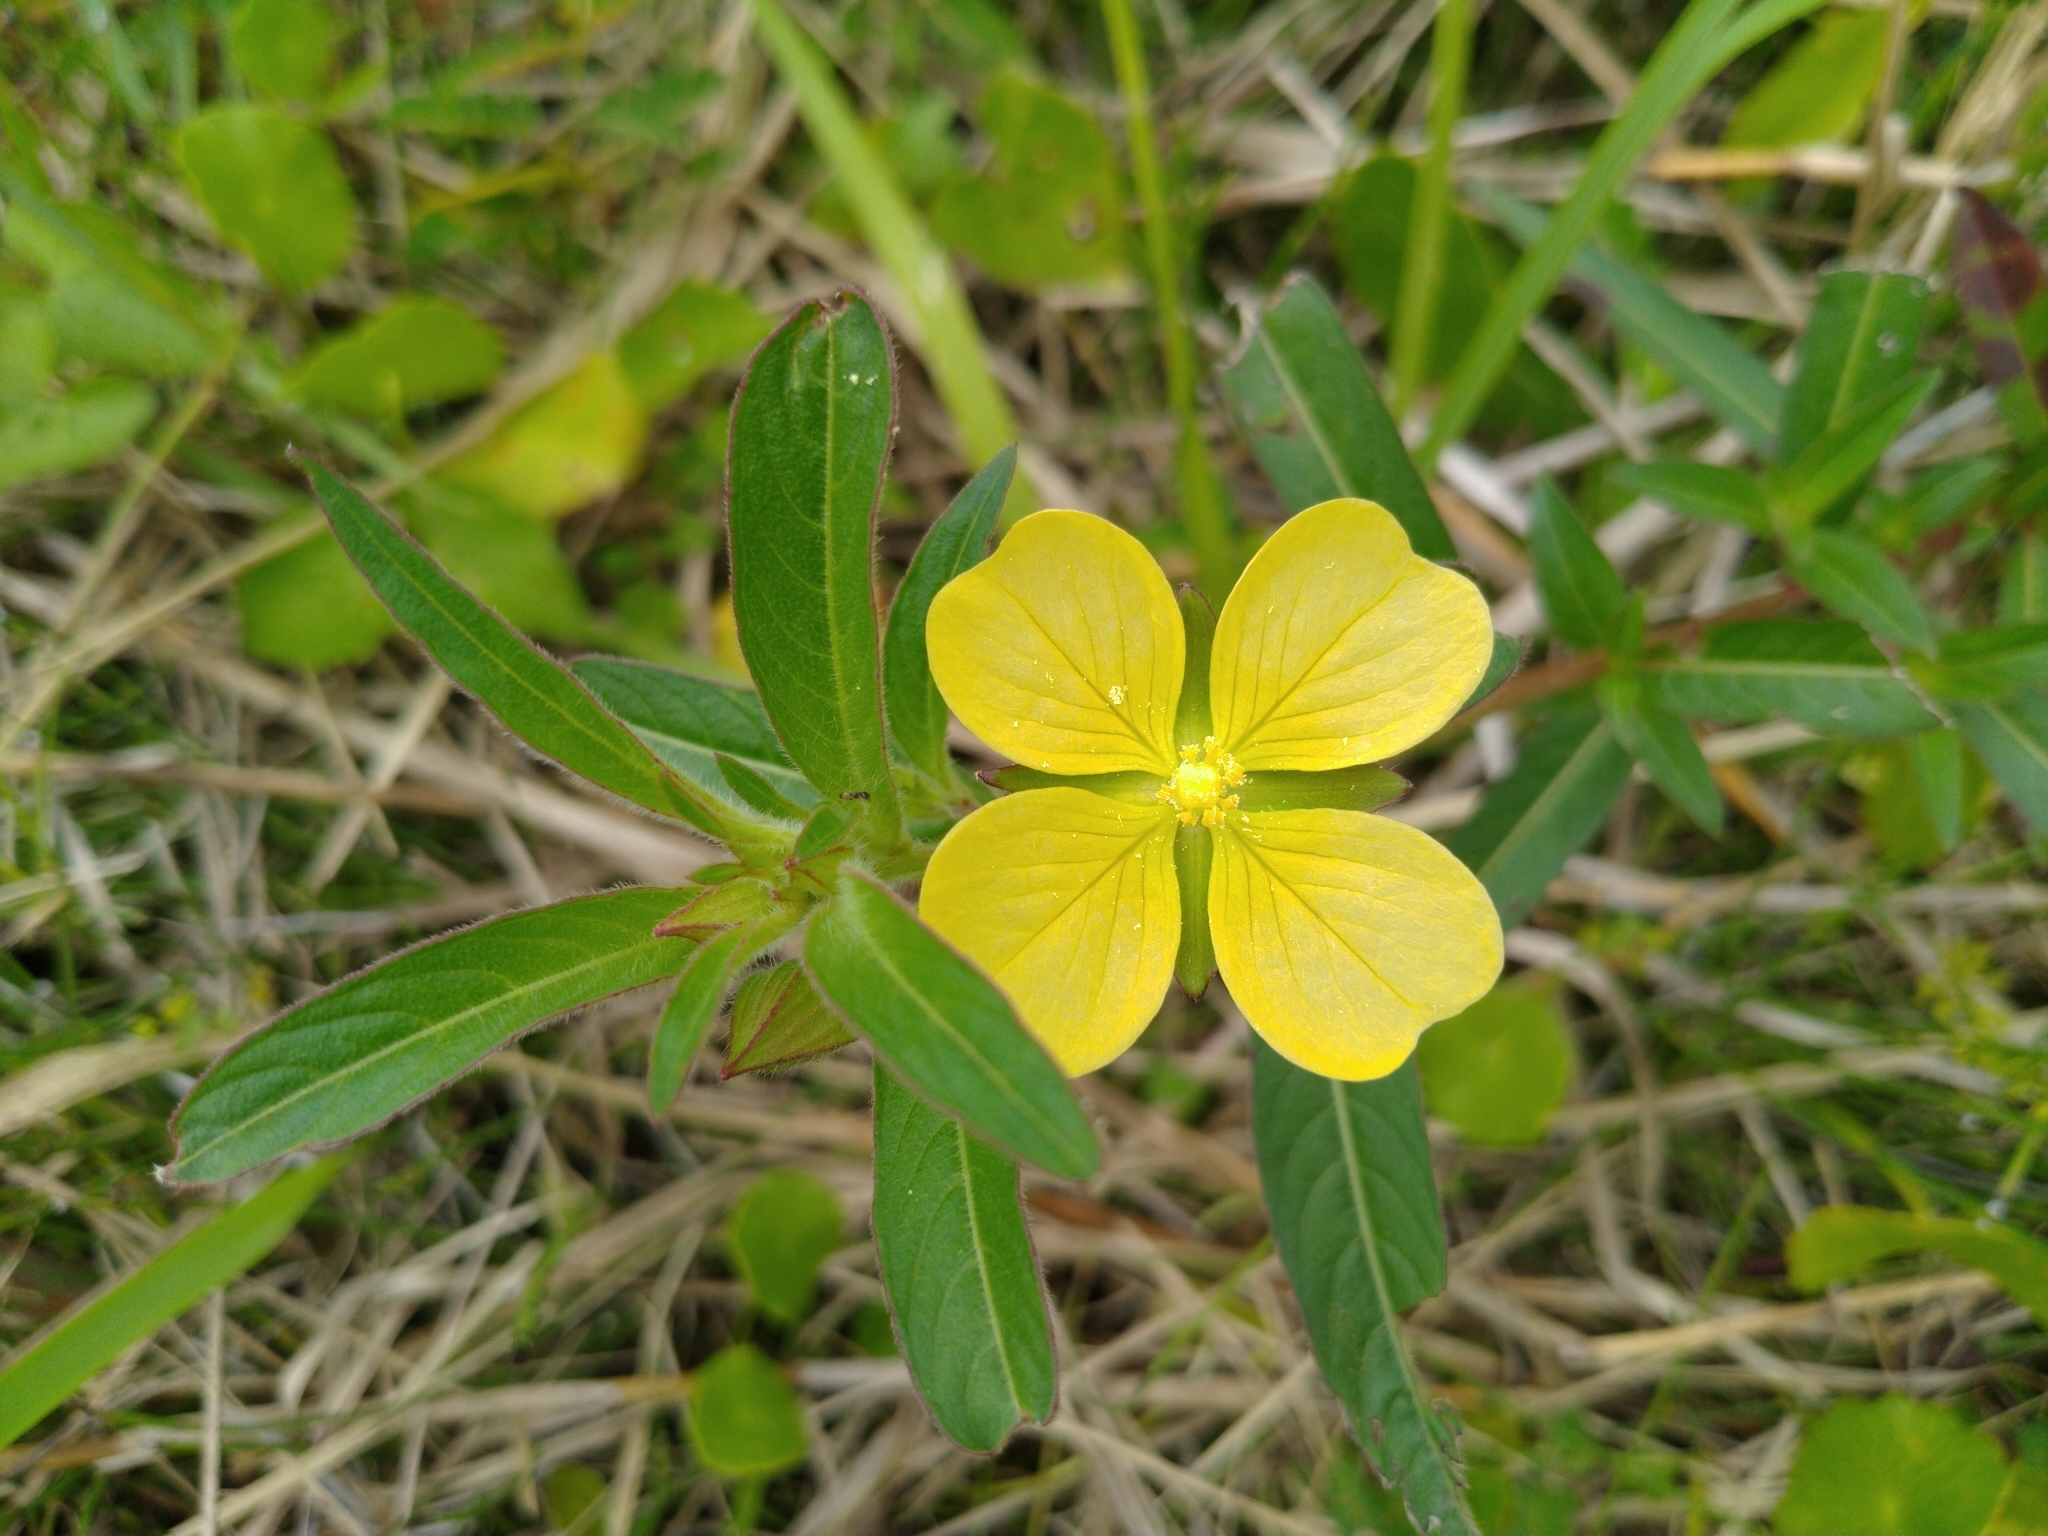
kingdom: Plantae
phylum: Tracheophyta
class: Magnoliopsida
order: Myrtales
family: Onagraceae
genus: Ludwigia
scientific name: Ludwigia octovalvis
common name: Water-primrose
